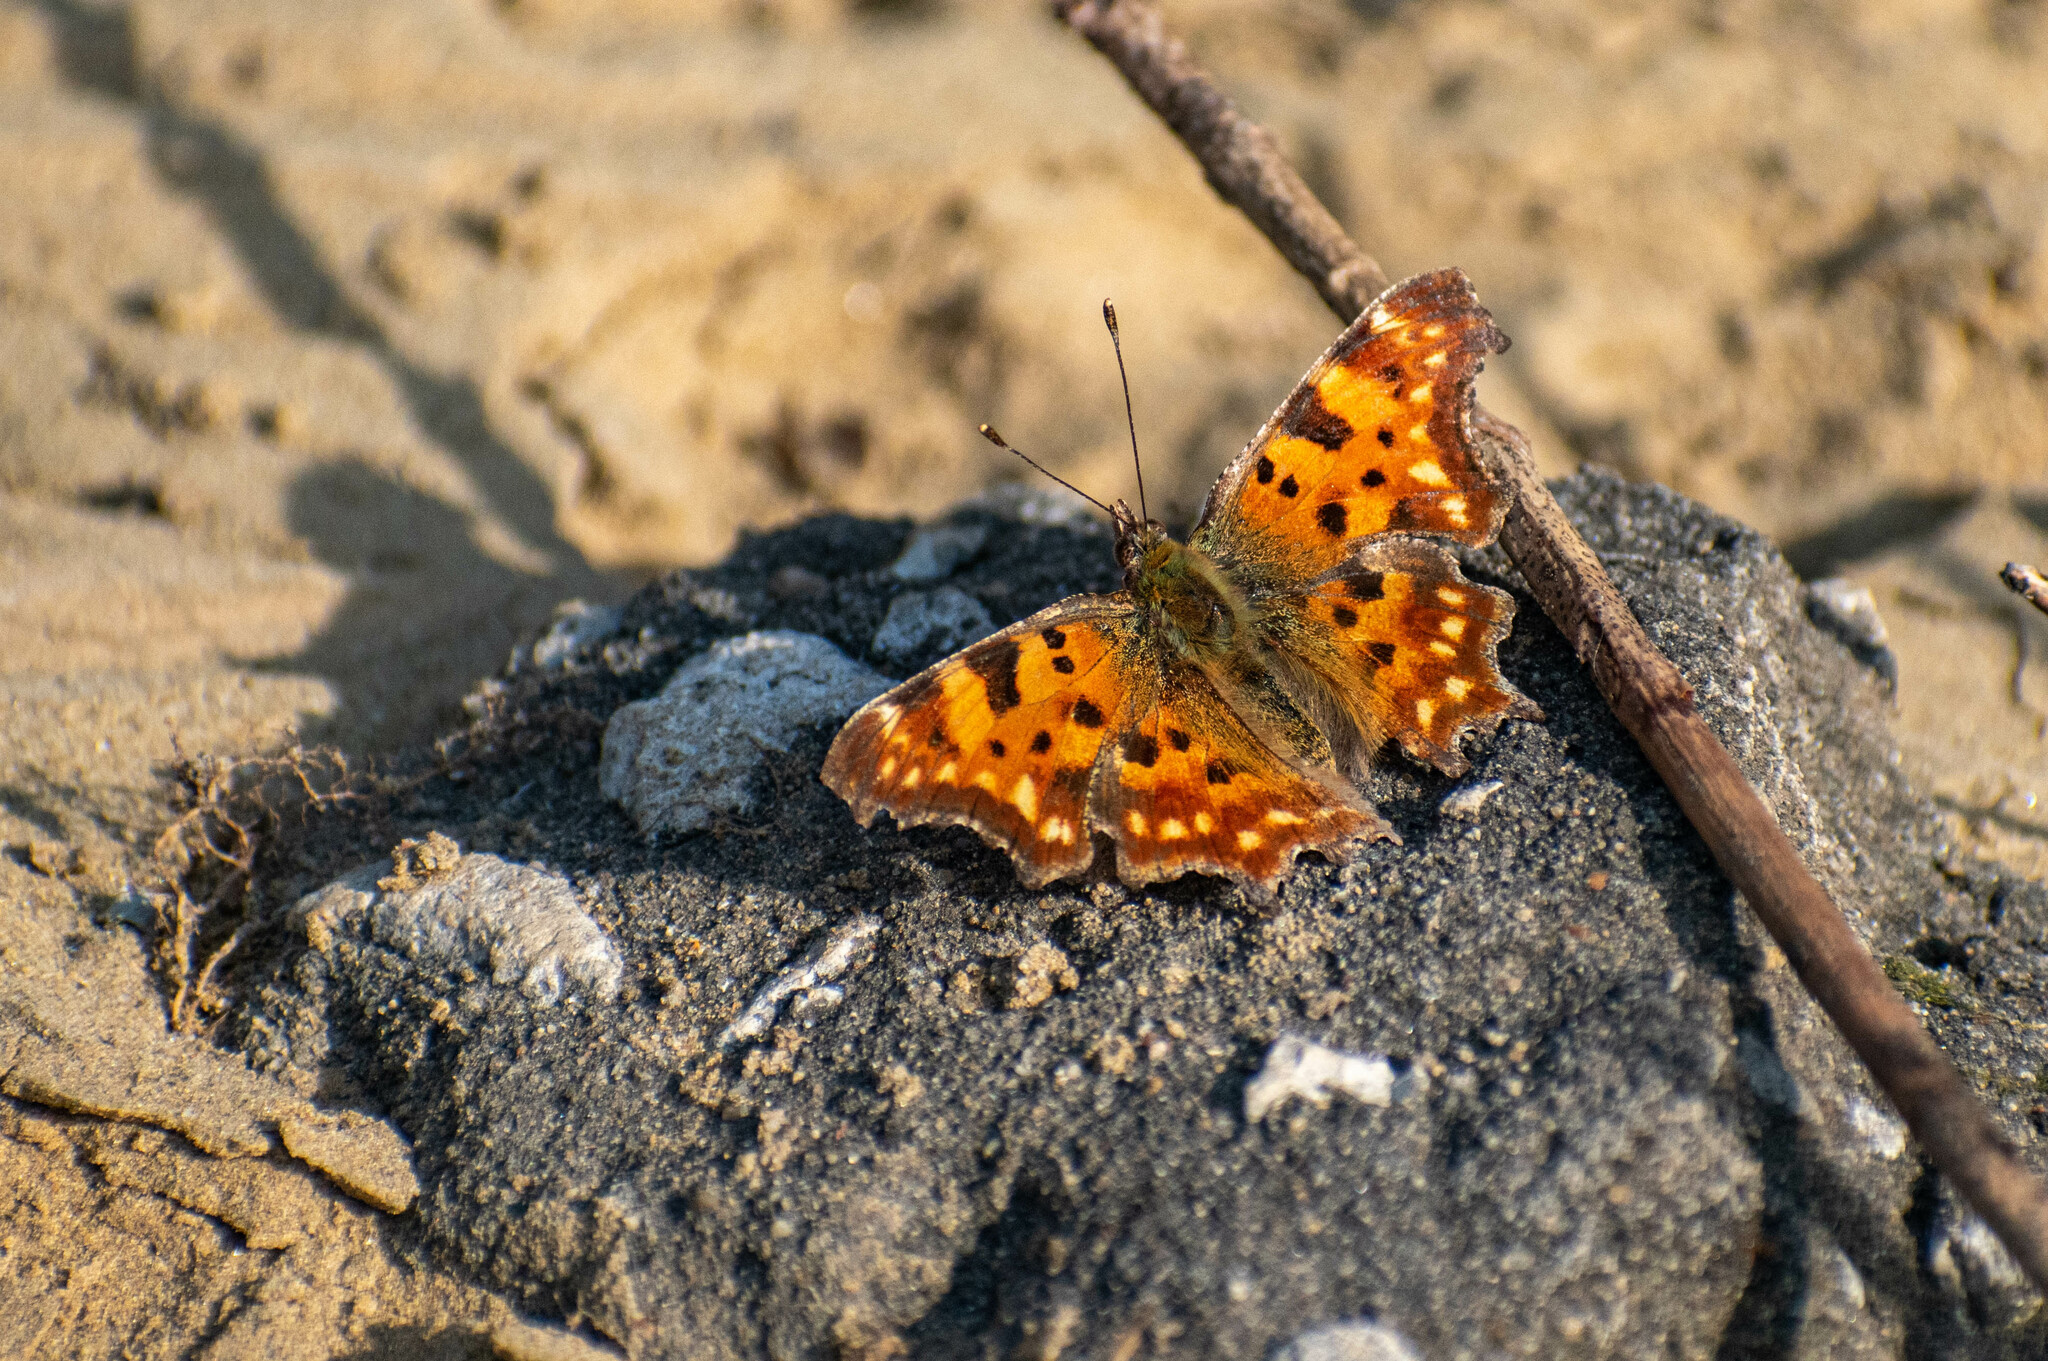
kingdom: Animalia
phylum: Arthropoda
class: Insecta
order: Lepidoptera
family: Nymphalidae
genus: Polygonia
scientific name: Polygonia c-album
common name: Comma
